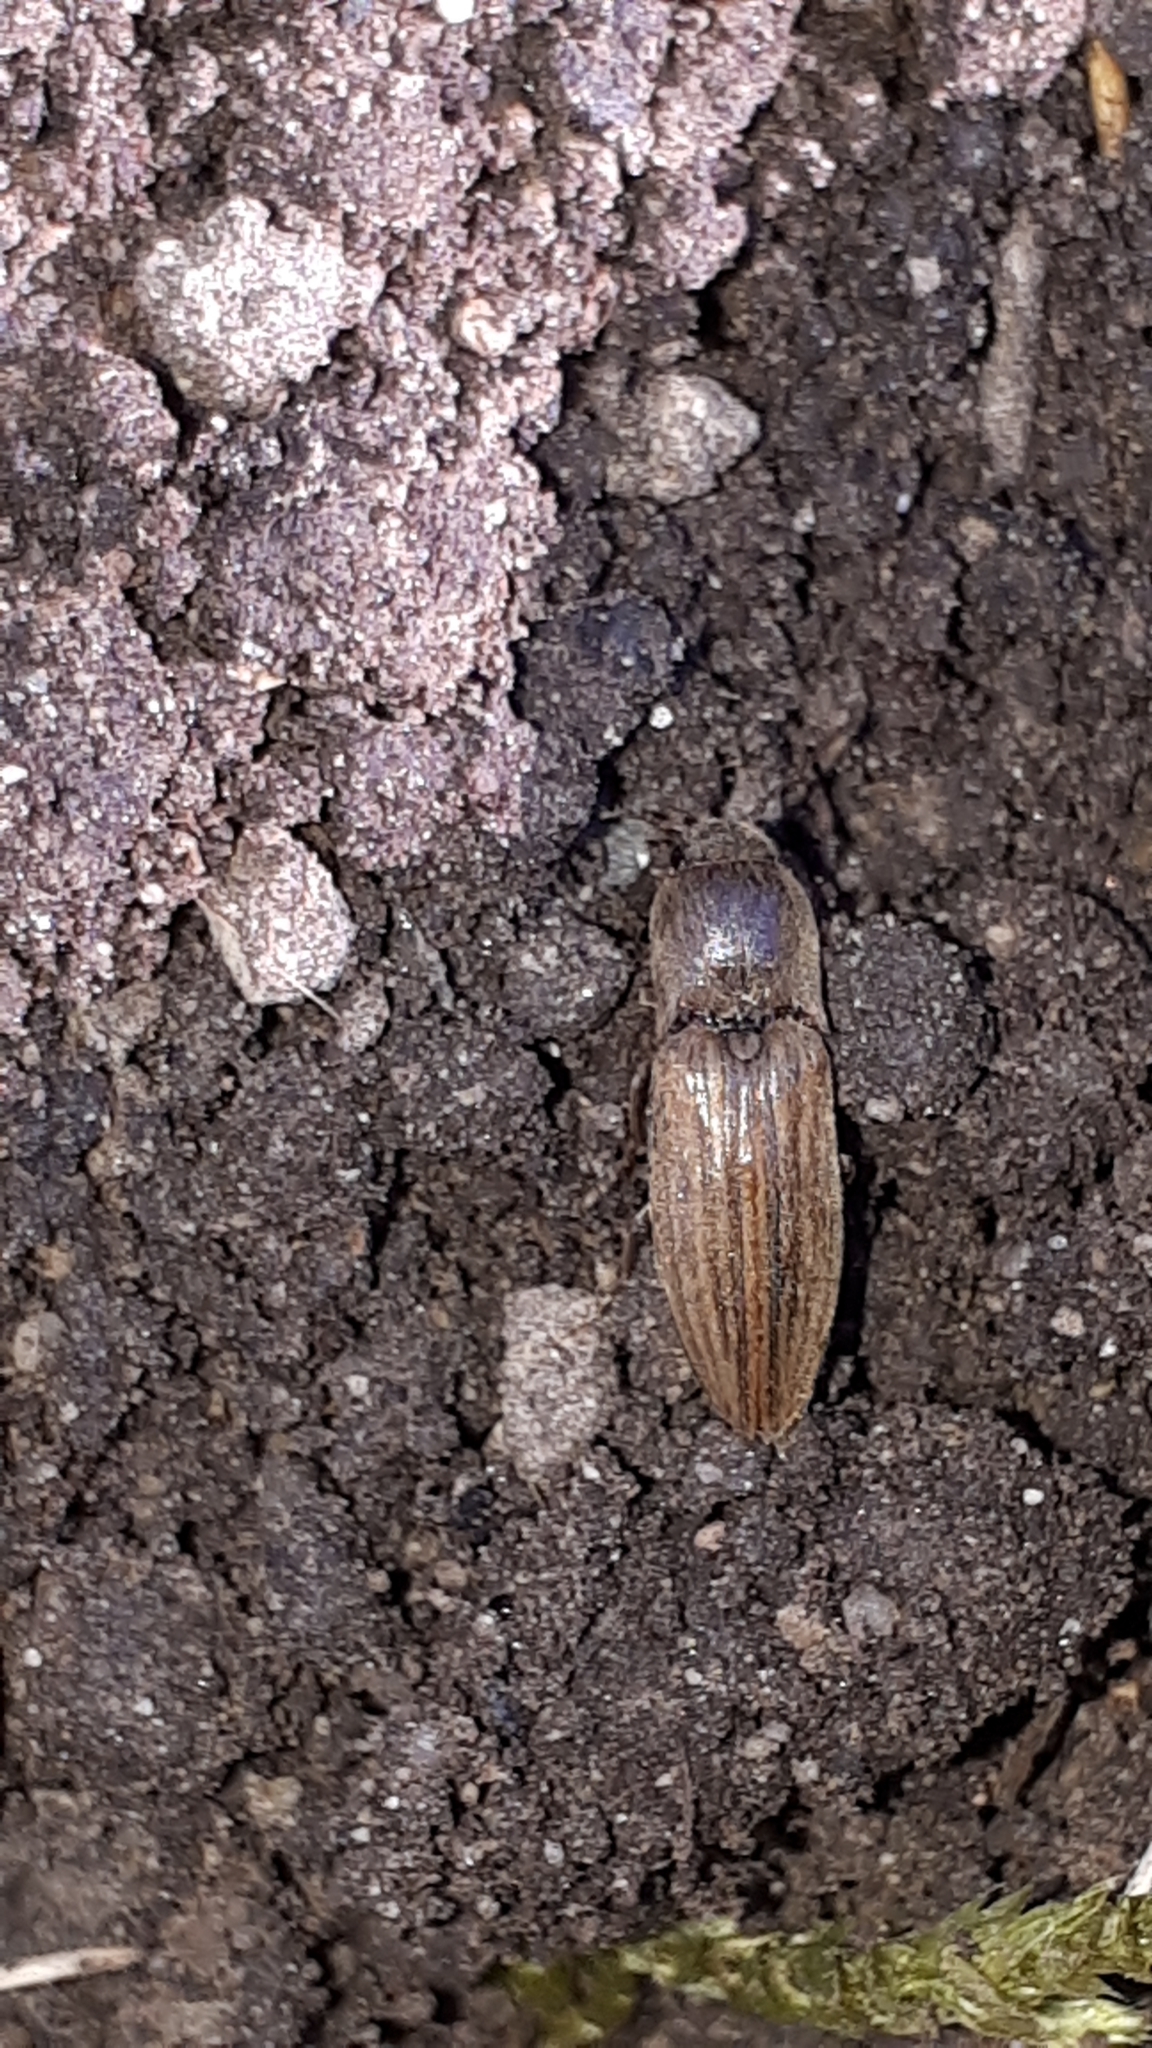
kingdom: Animalia
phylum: Arthropoda
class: Insecta
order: Coleoptera
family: Elateridae
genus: Agriotes
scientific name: Agriotes lineatus
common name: Lined click beetle
